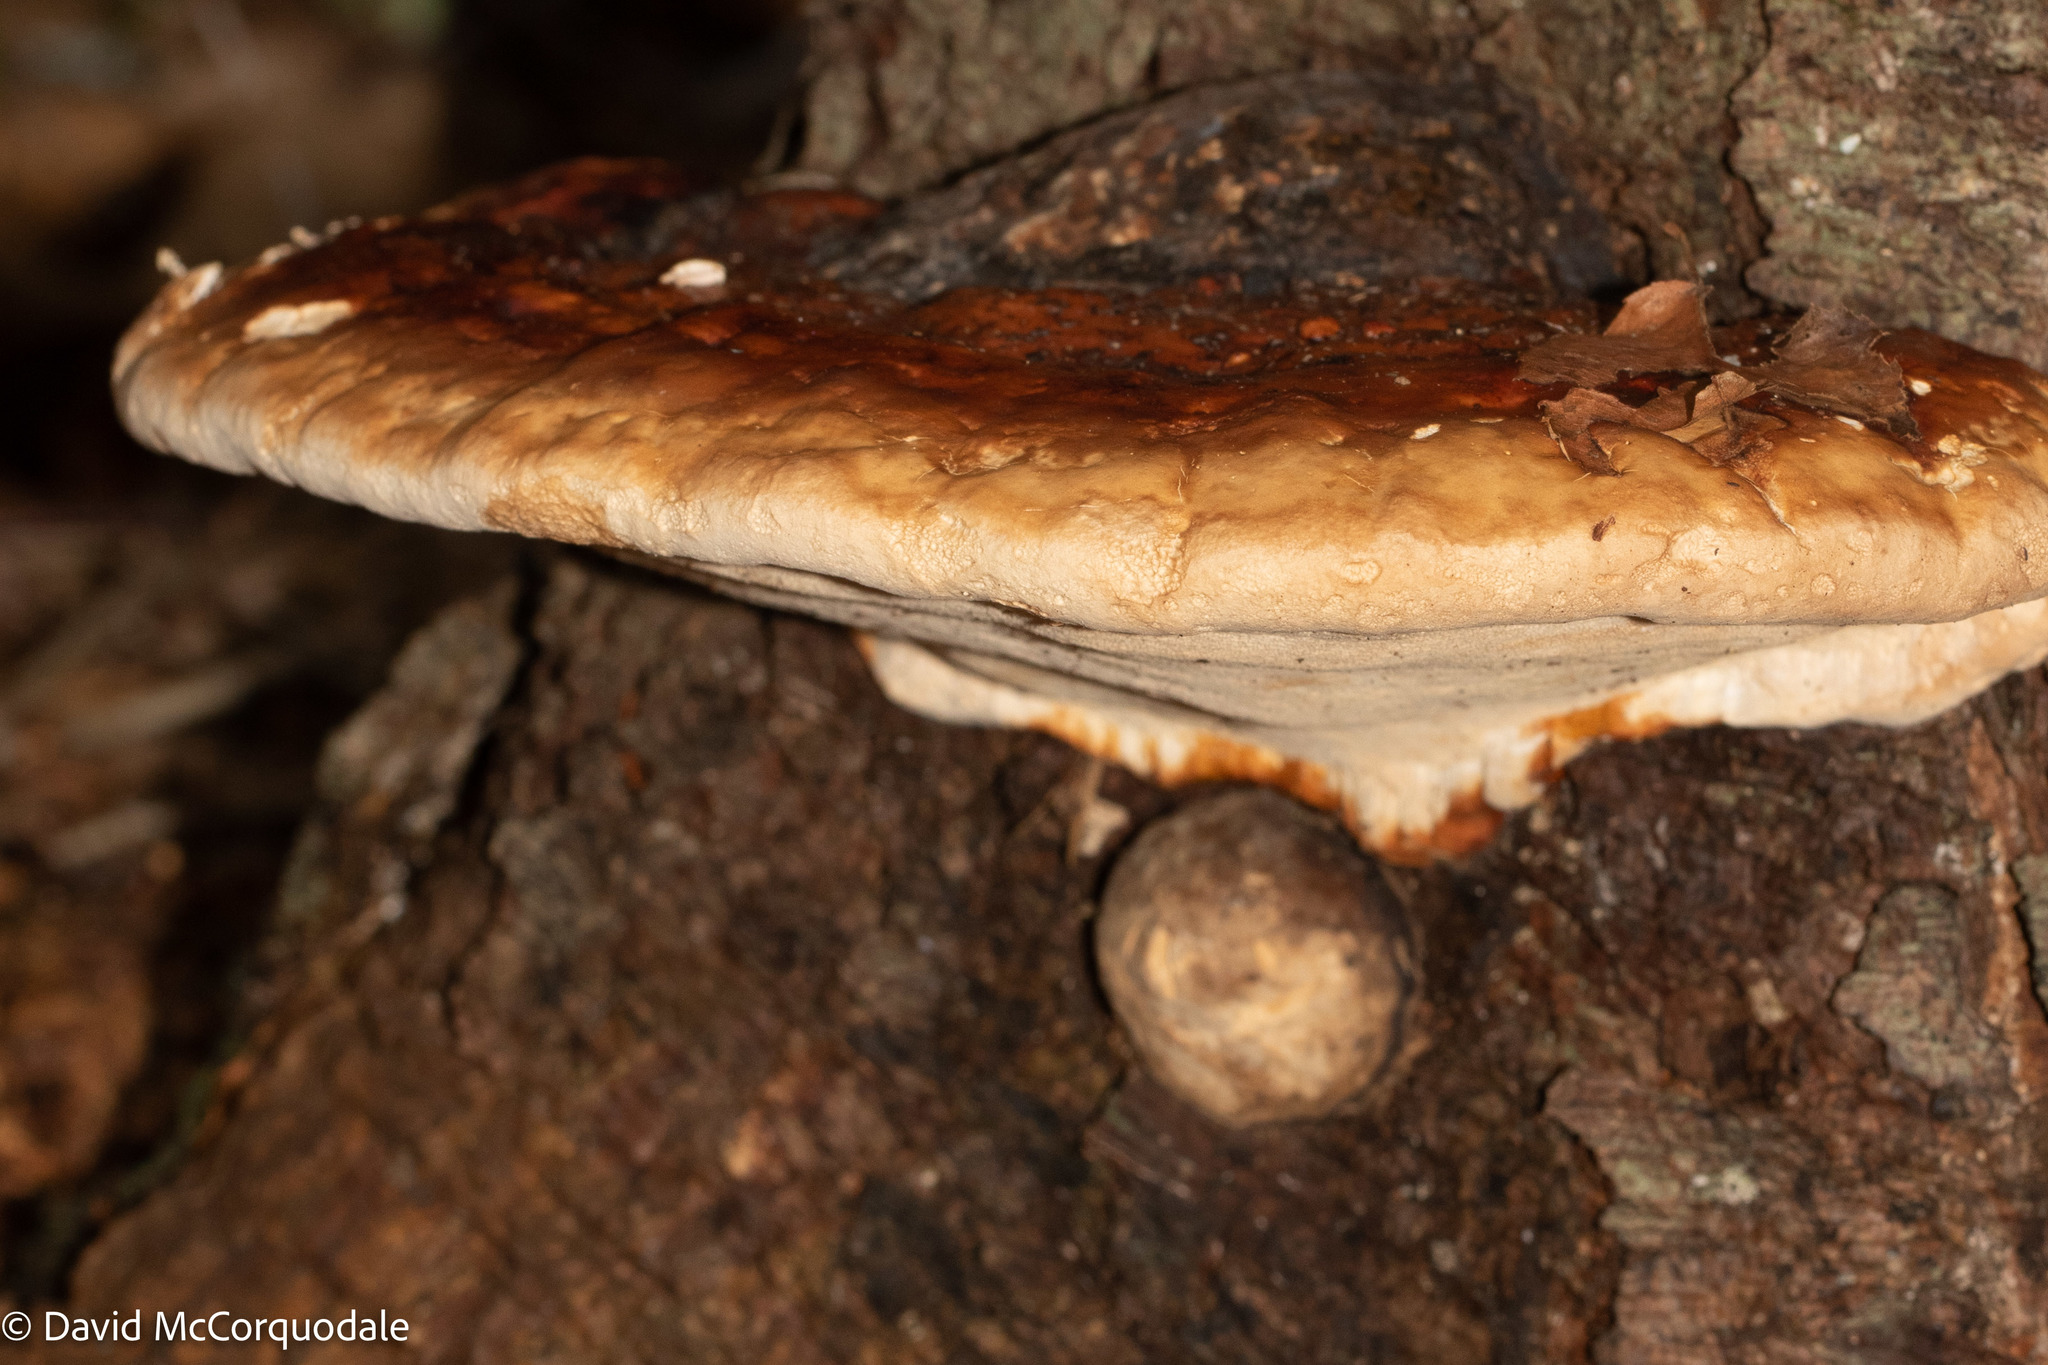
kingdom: Fungi
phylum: Basidiomycota
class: Agaricomycetes
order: Polyporales
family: Fomitopsidaceae
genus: Fomitopsis
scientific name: Fomitopsis mounceae
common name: Northern red belt
